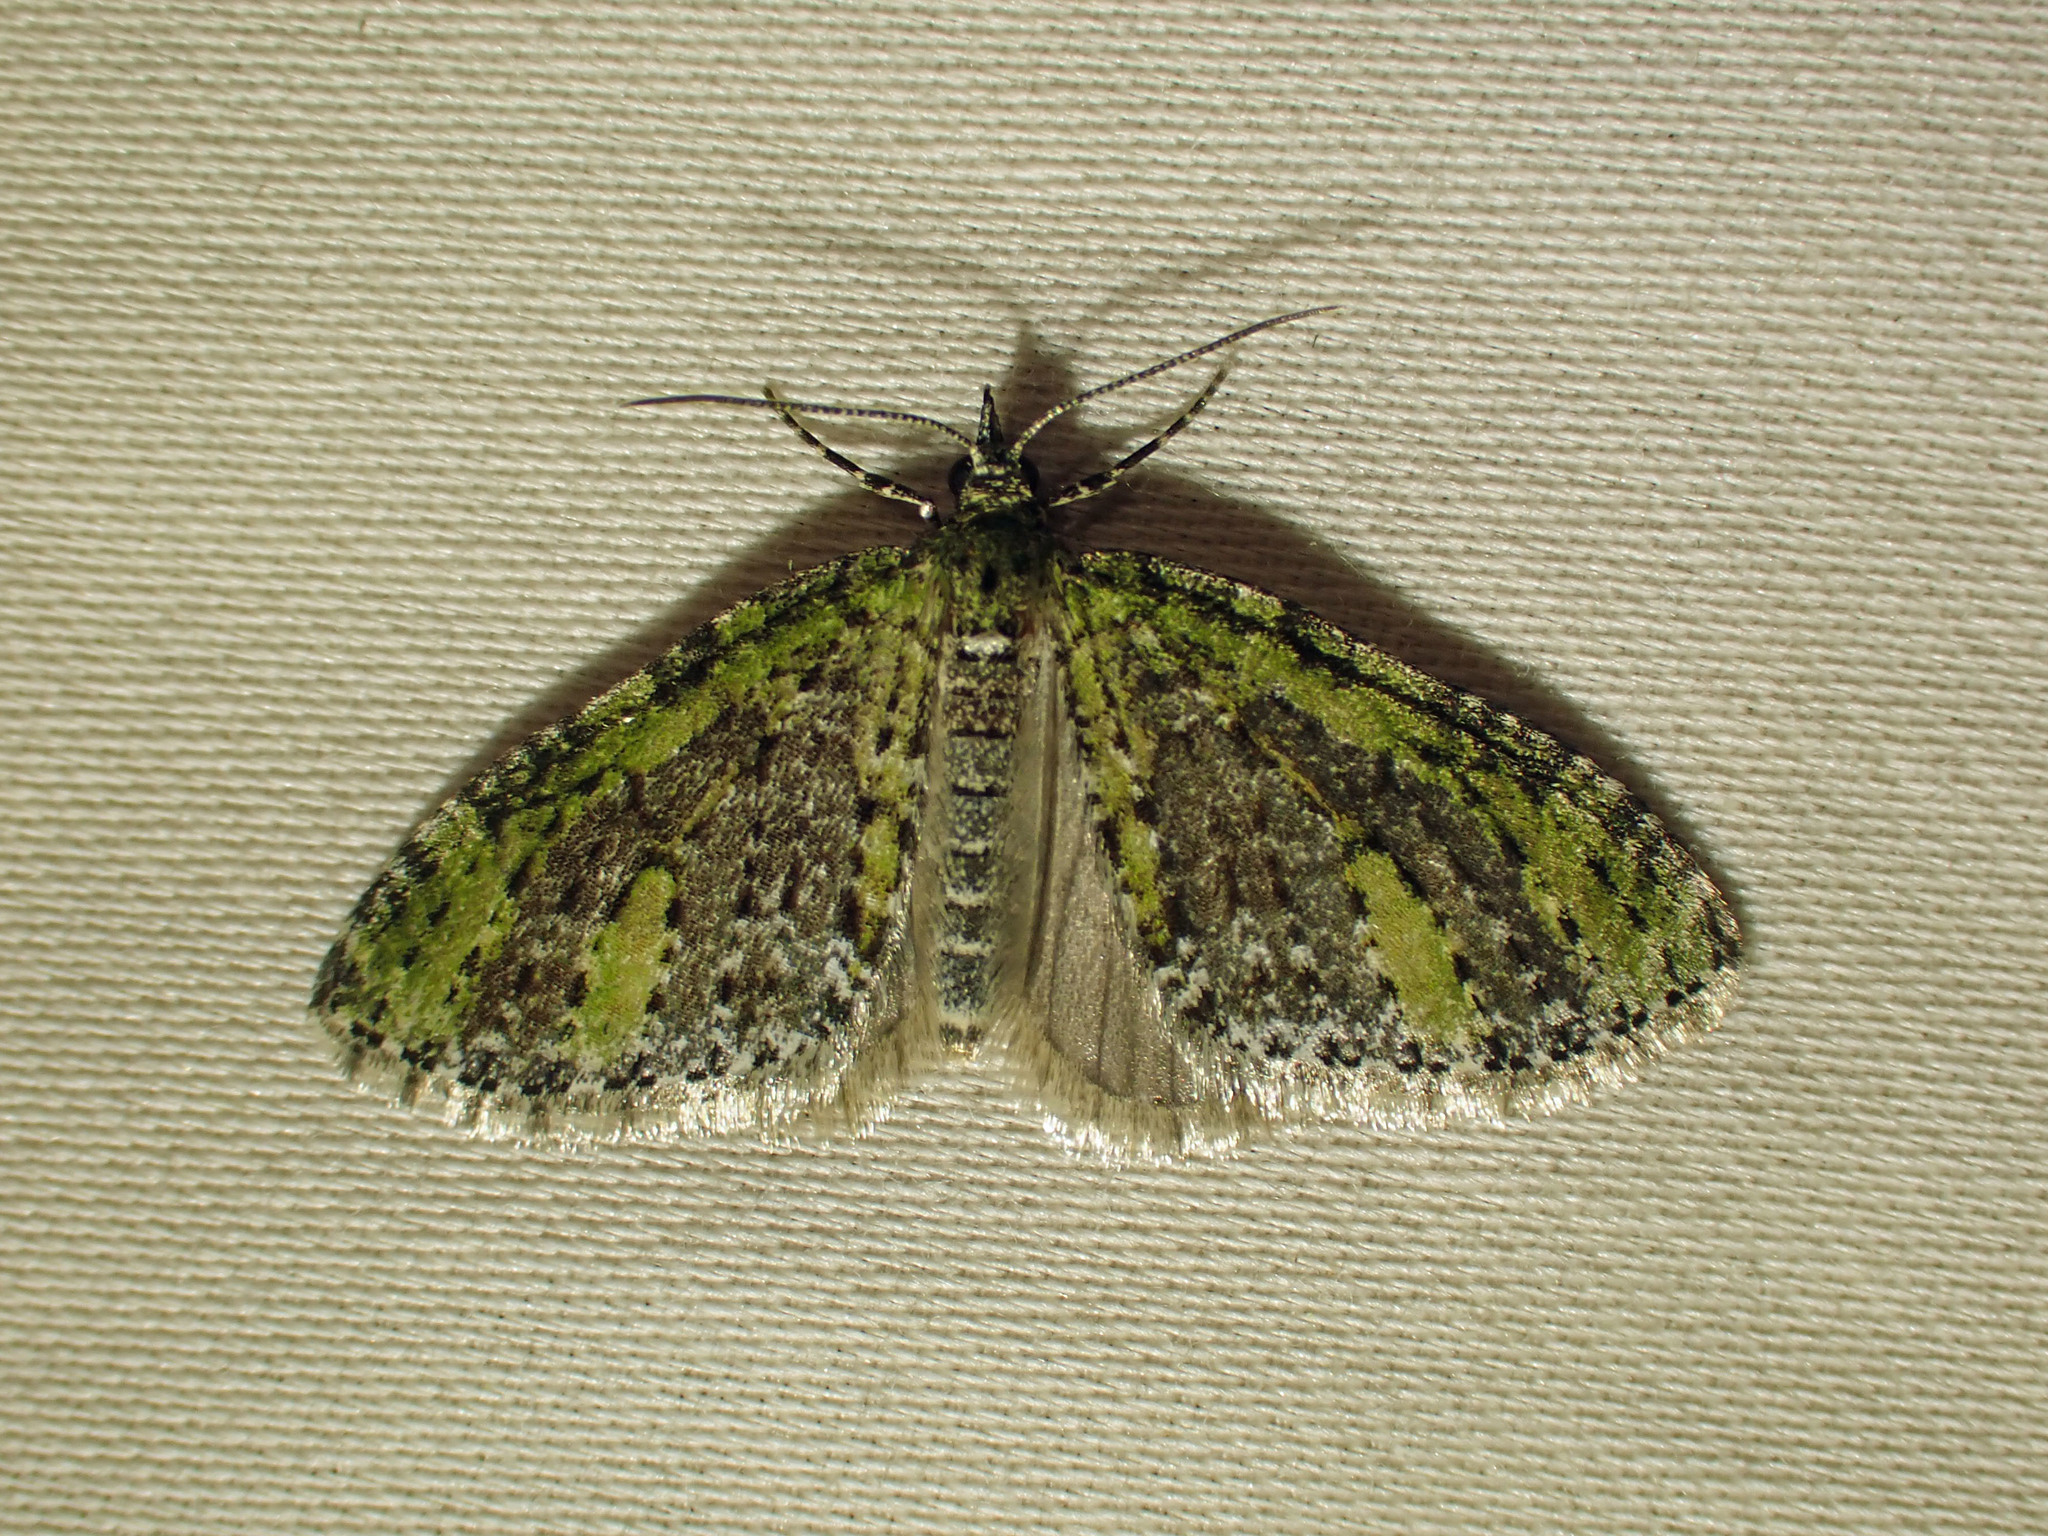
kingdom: Animalia
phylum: Arthropoda
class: Insecta
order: Lepidoptera
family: Geometridae
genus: Acasis
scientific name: Acasis viridata
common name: Olive-and-black carpet moth
